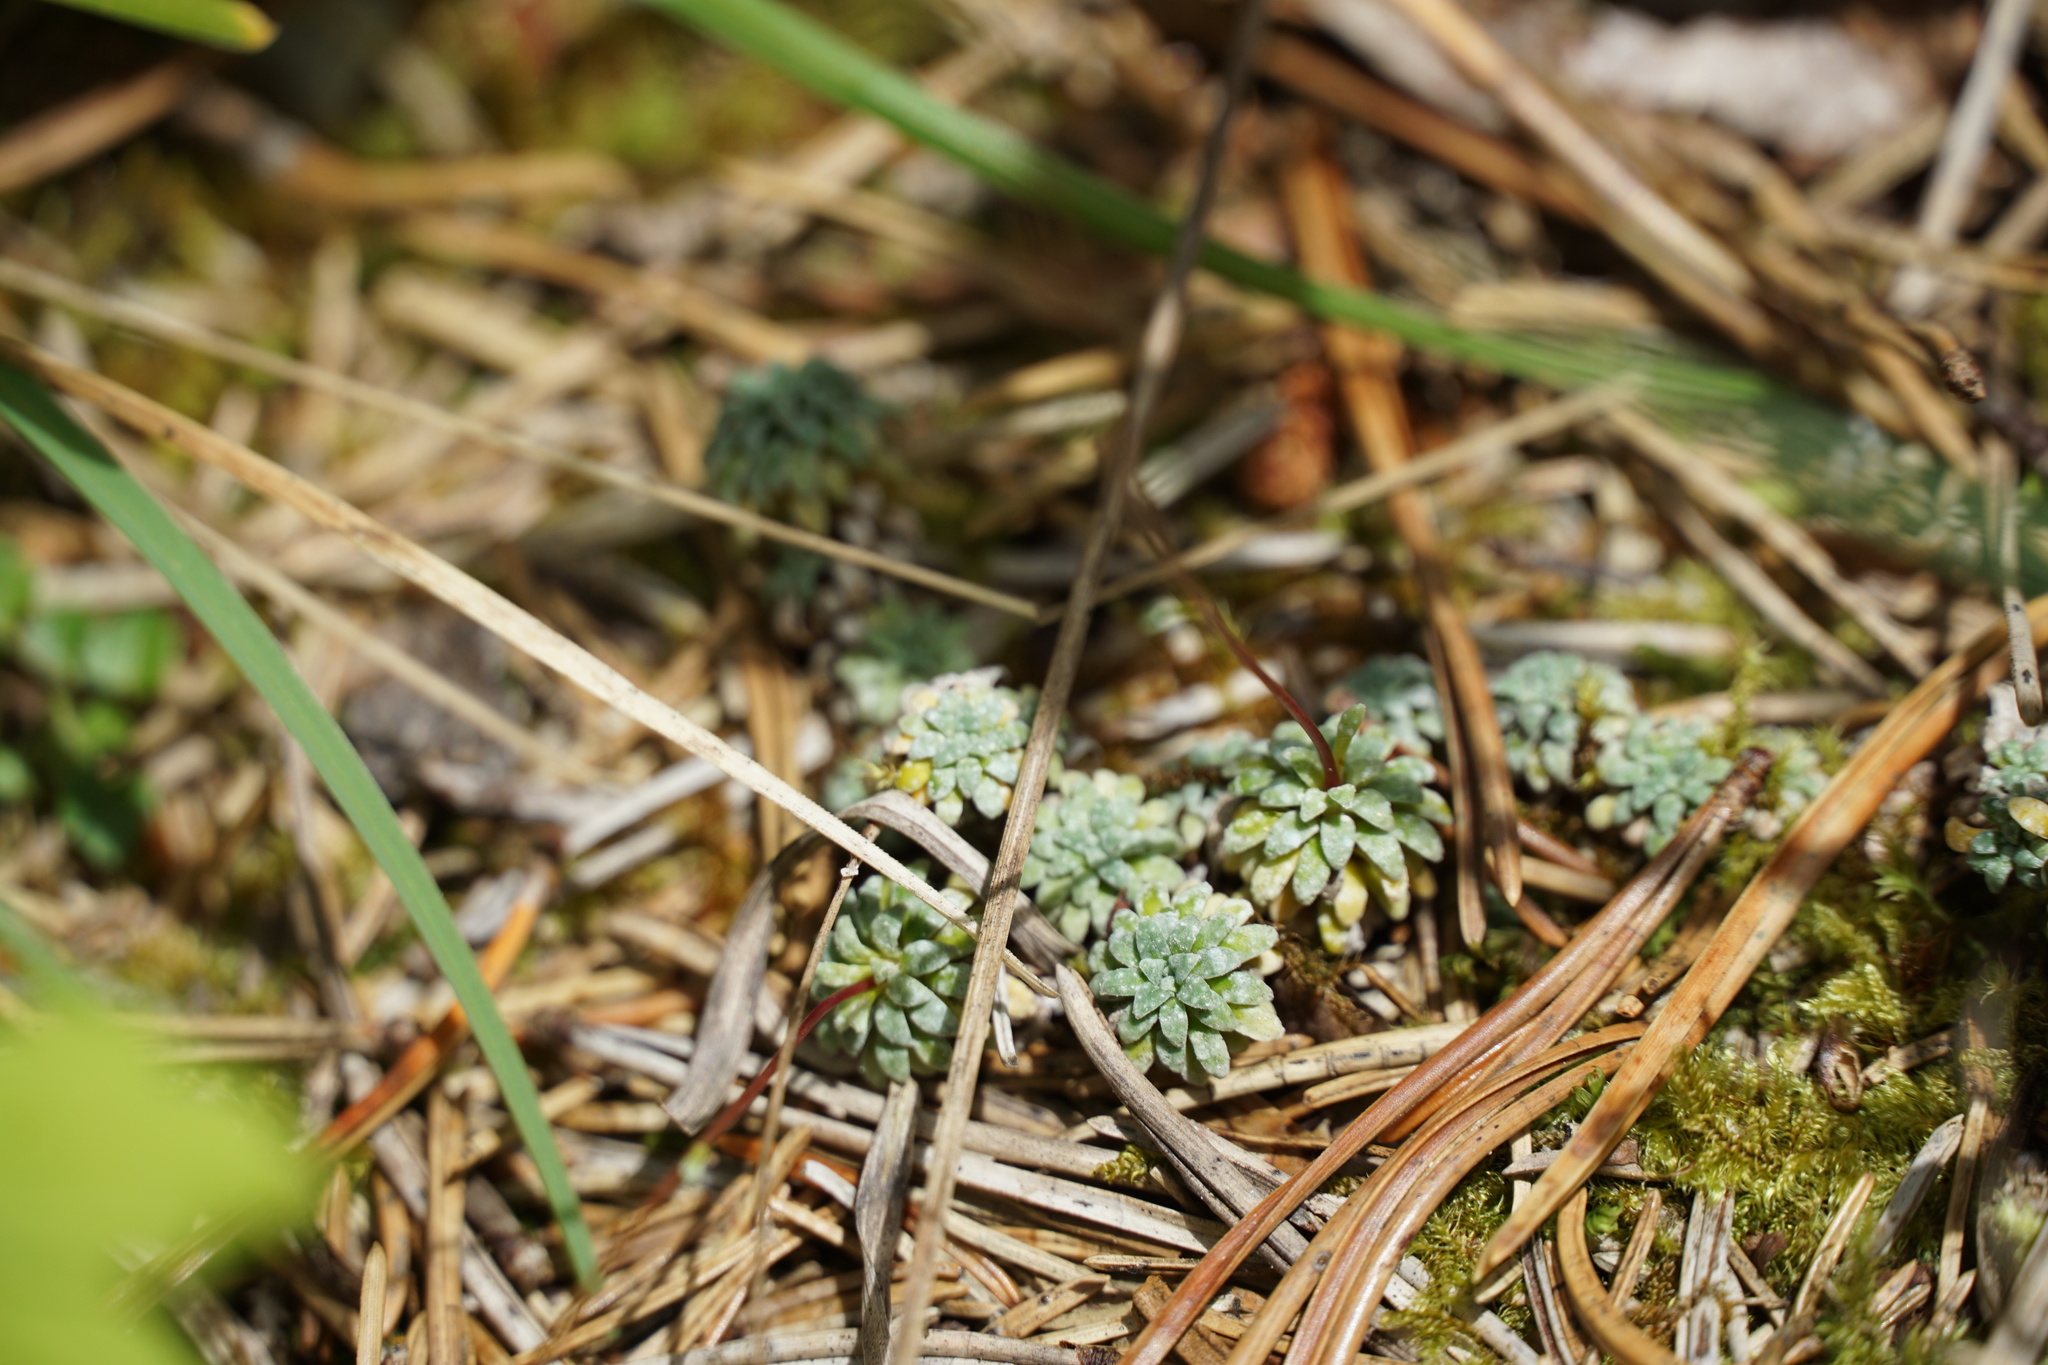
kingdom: Plantae
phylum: Tracheophyta
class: Magnoliopsida
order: Saxifragales
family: Saxifragaceae
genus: Saxifraga
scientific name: Saxifraga caesia
